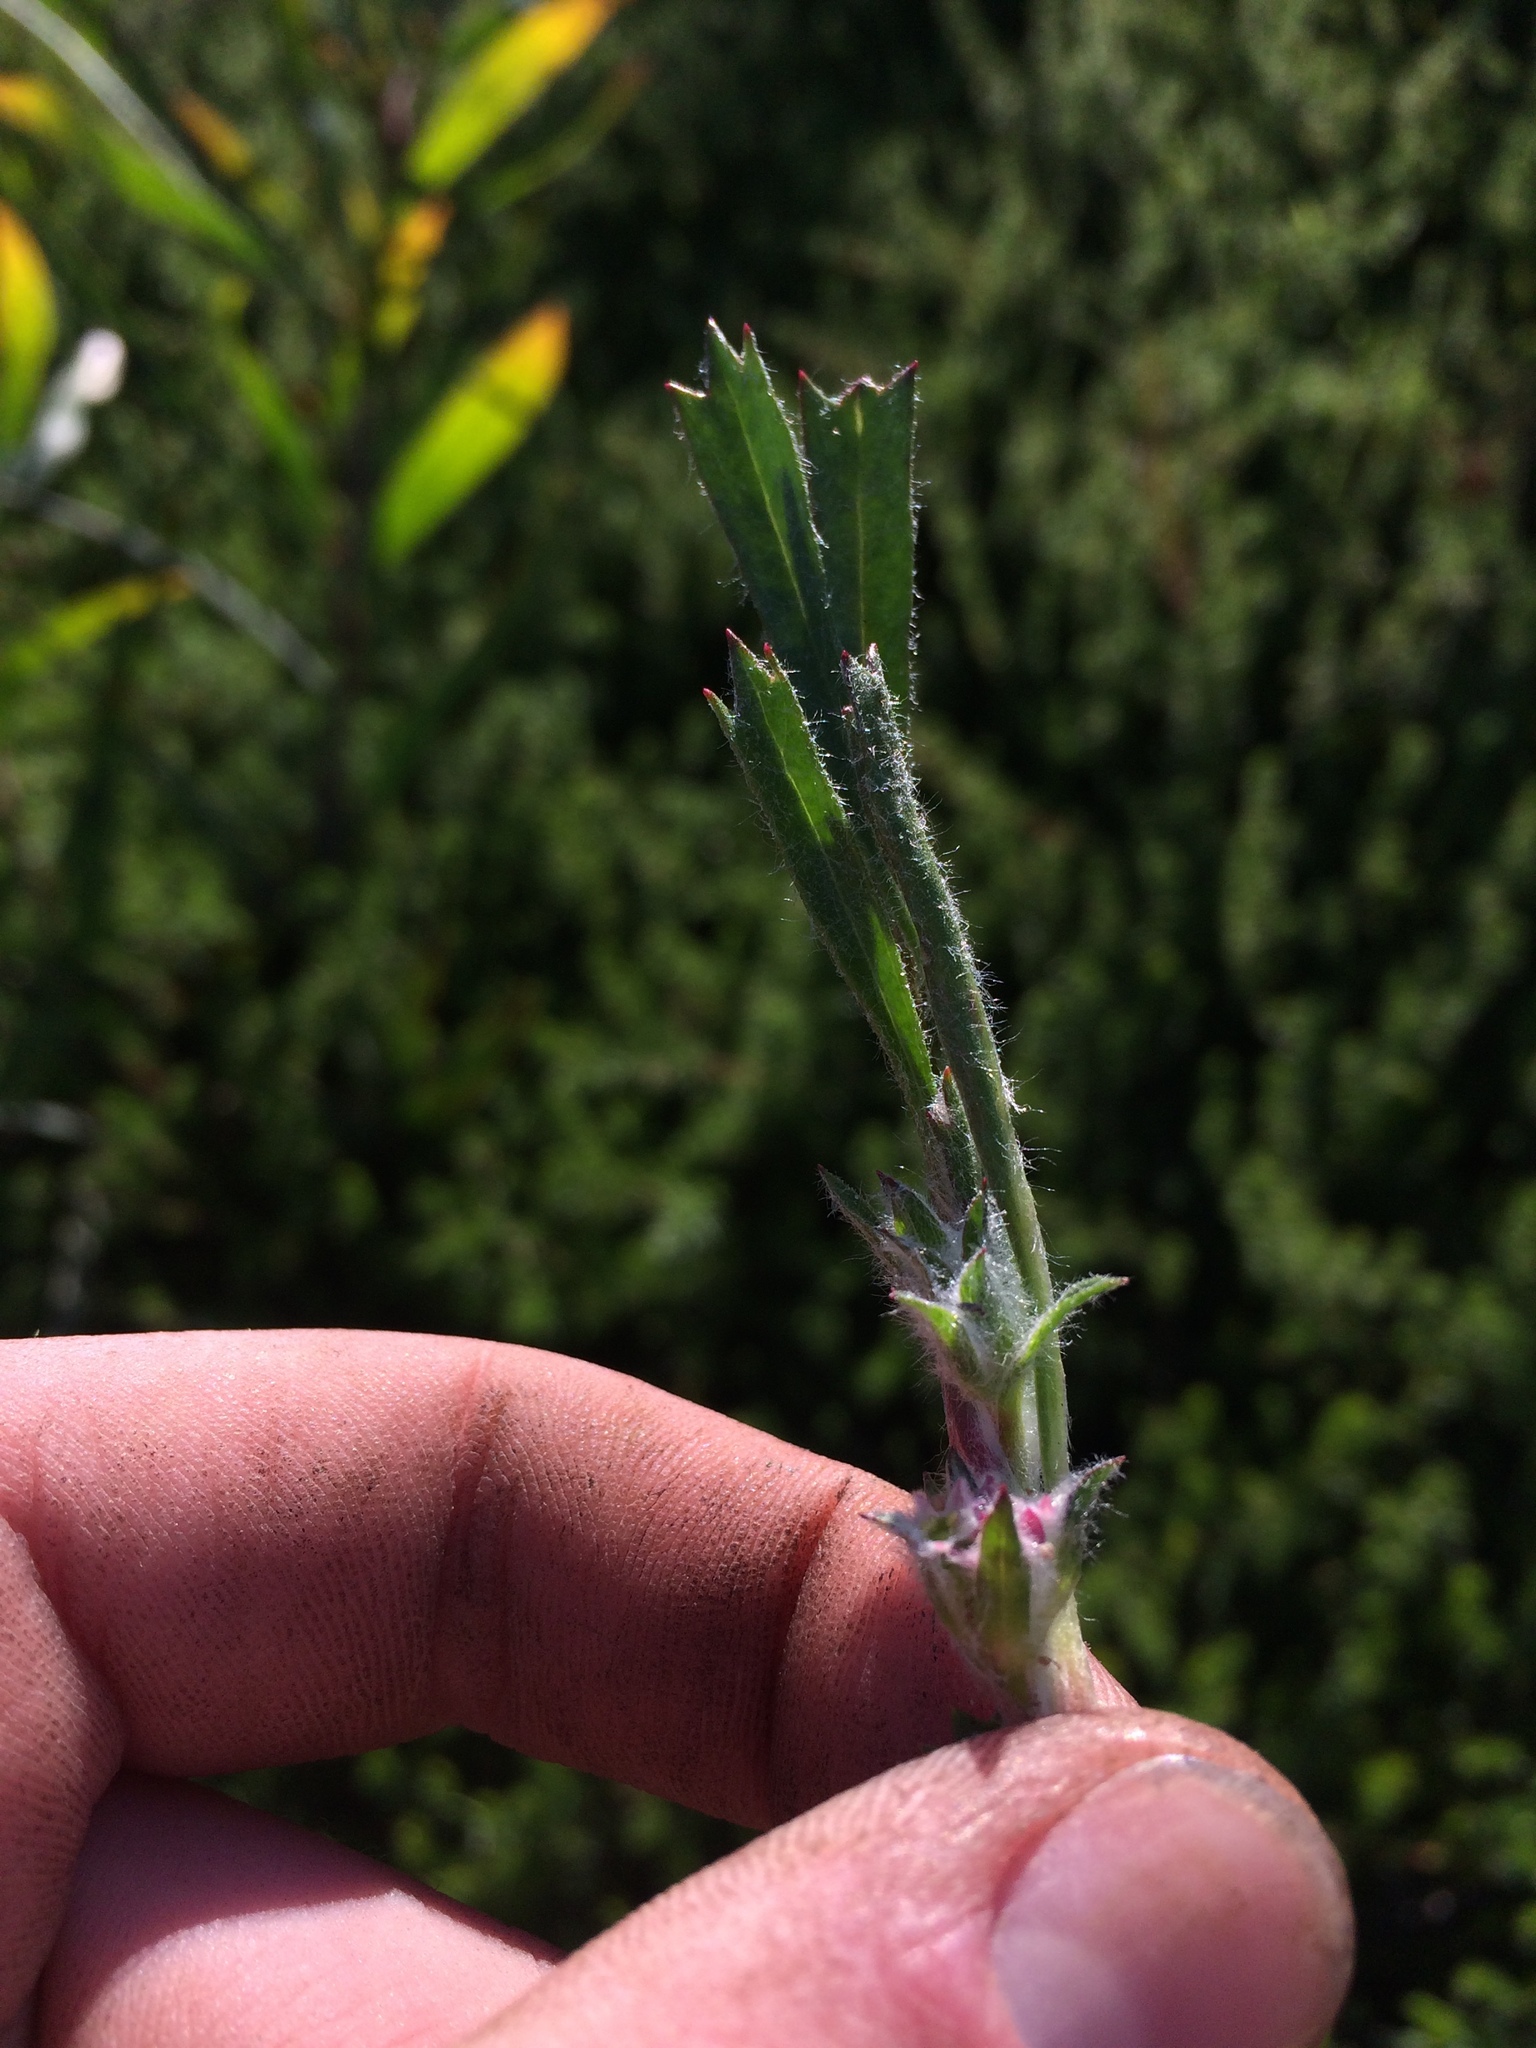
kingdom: Plantae
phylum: Tracheophyta
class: Magnoliopsida
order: Apiales
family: Apiaceae
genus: Centella
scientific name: Centella tridentata
